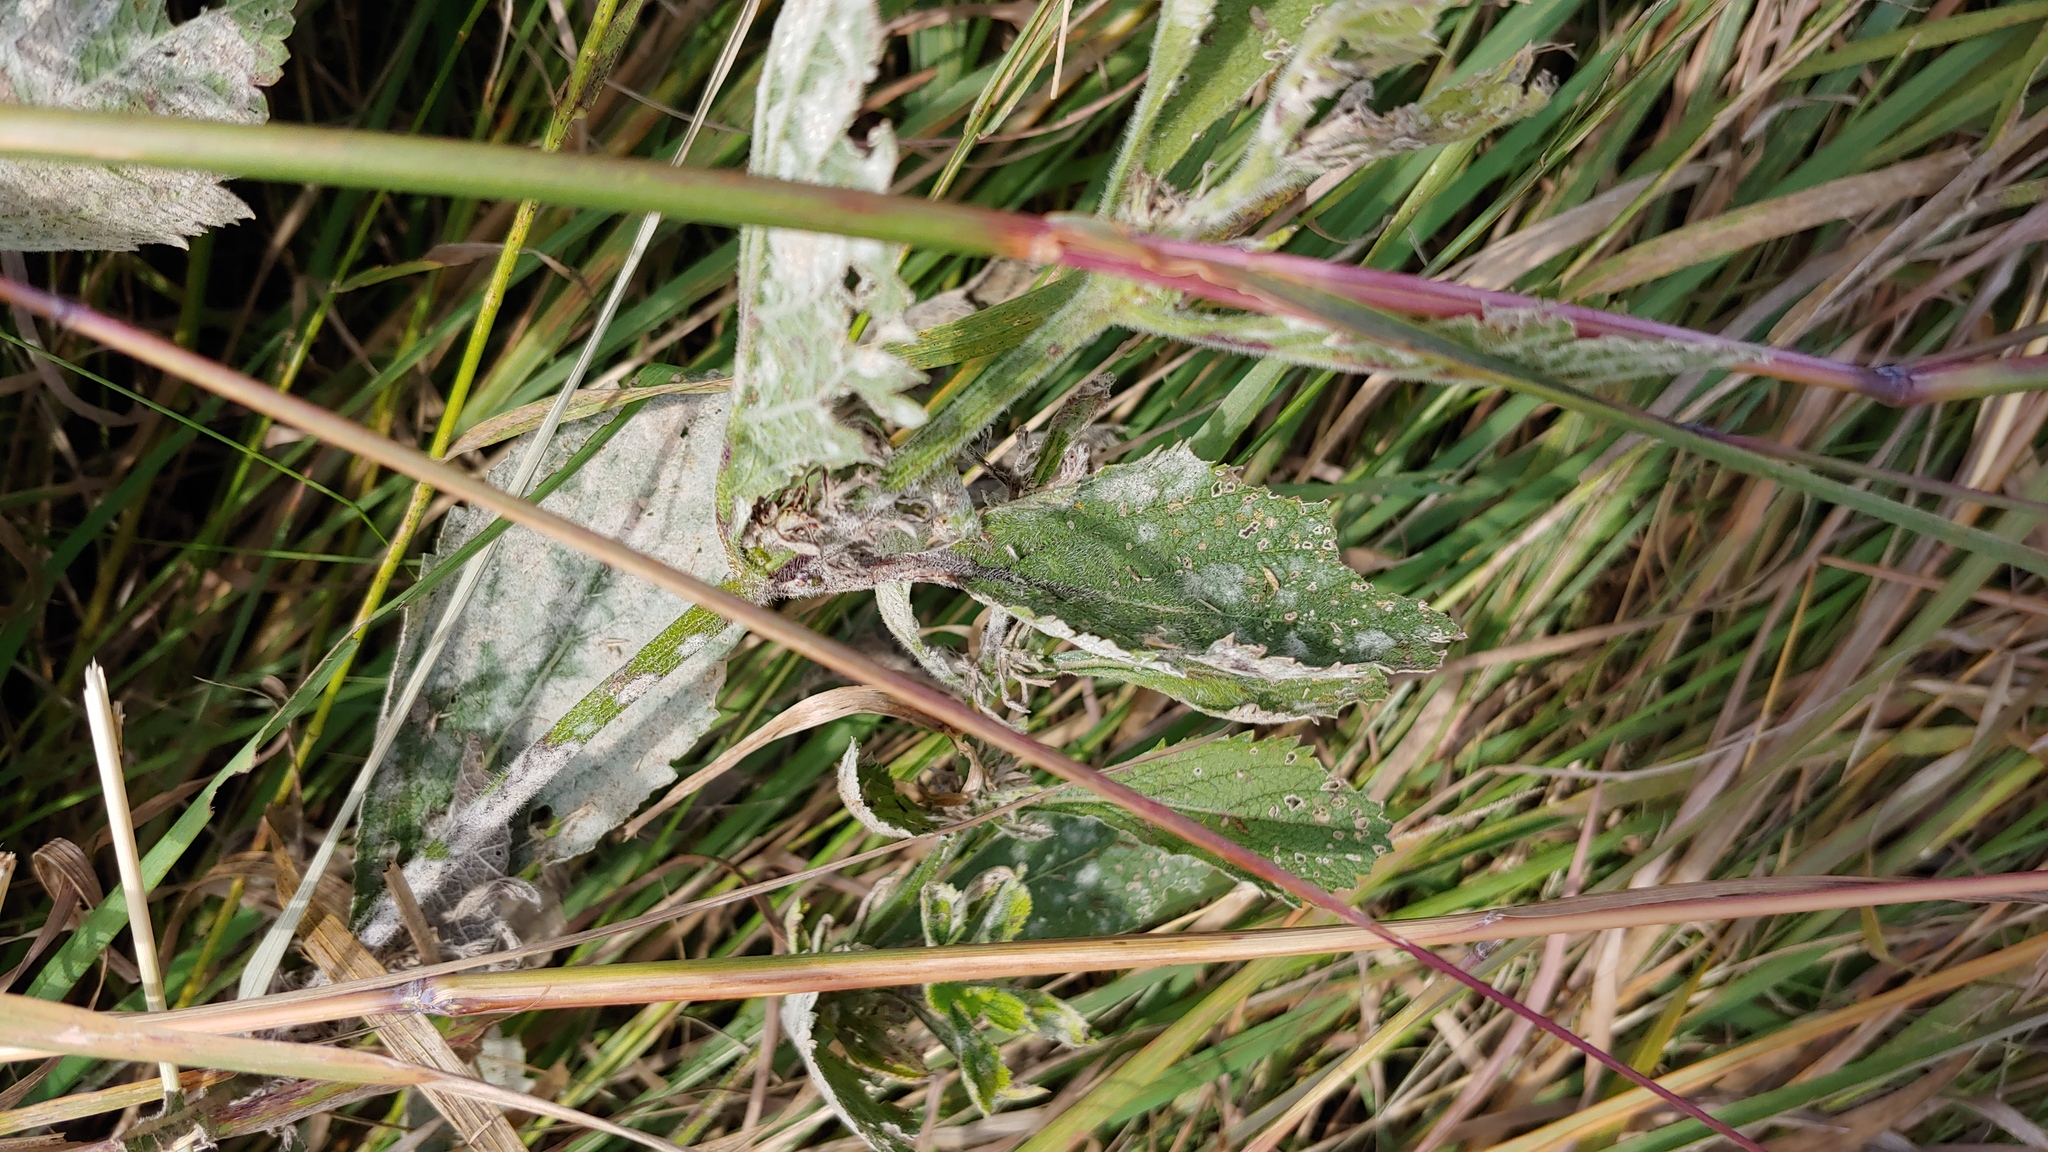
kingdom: Fungi
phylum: Ascomycota
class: Leotiomycetes
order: Helotiales
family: Erysiphaceae
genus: Golovinomyces
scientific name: Golovinomyces verbenae
